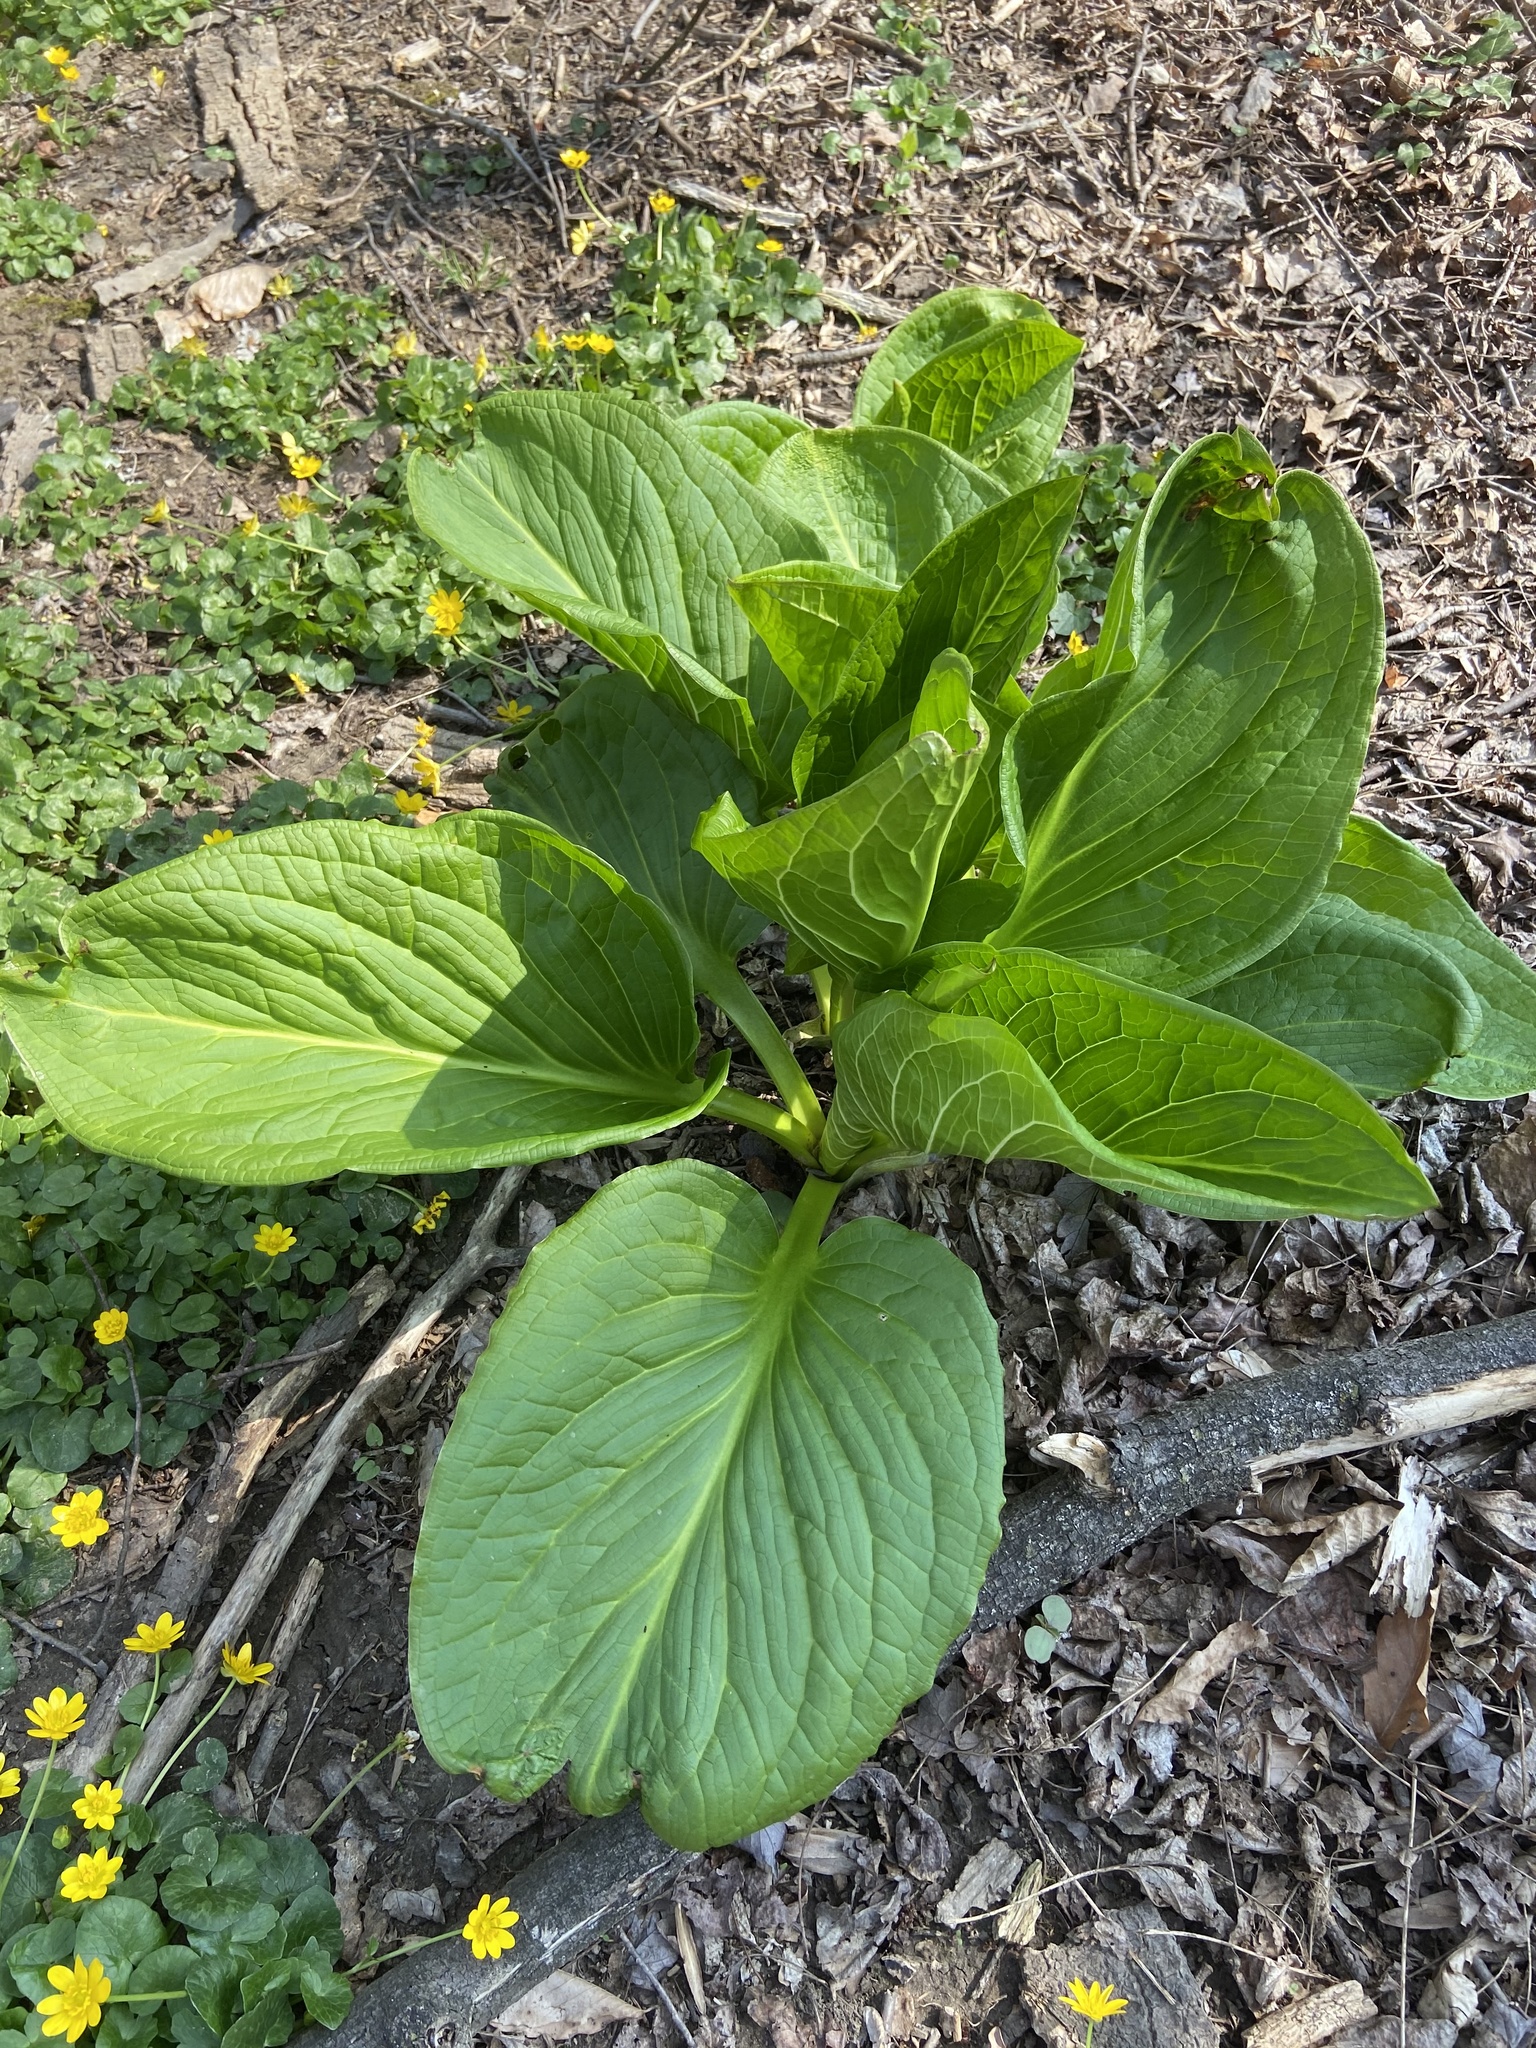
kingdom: Plantae
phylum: Tracheophyta
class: Liliopsida
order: Alismatales
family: Araceae
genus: Symplocarpus
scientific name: Symplocarpus foetidus
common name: Eastern skunk cabbage
